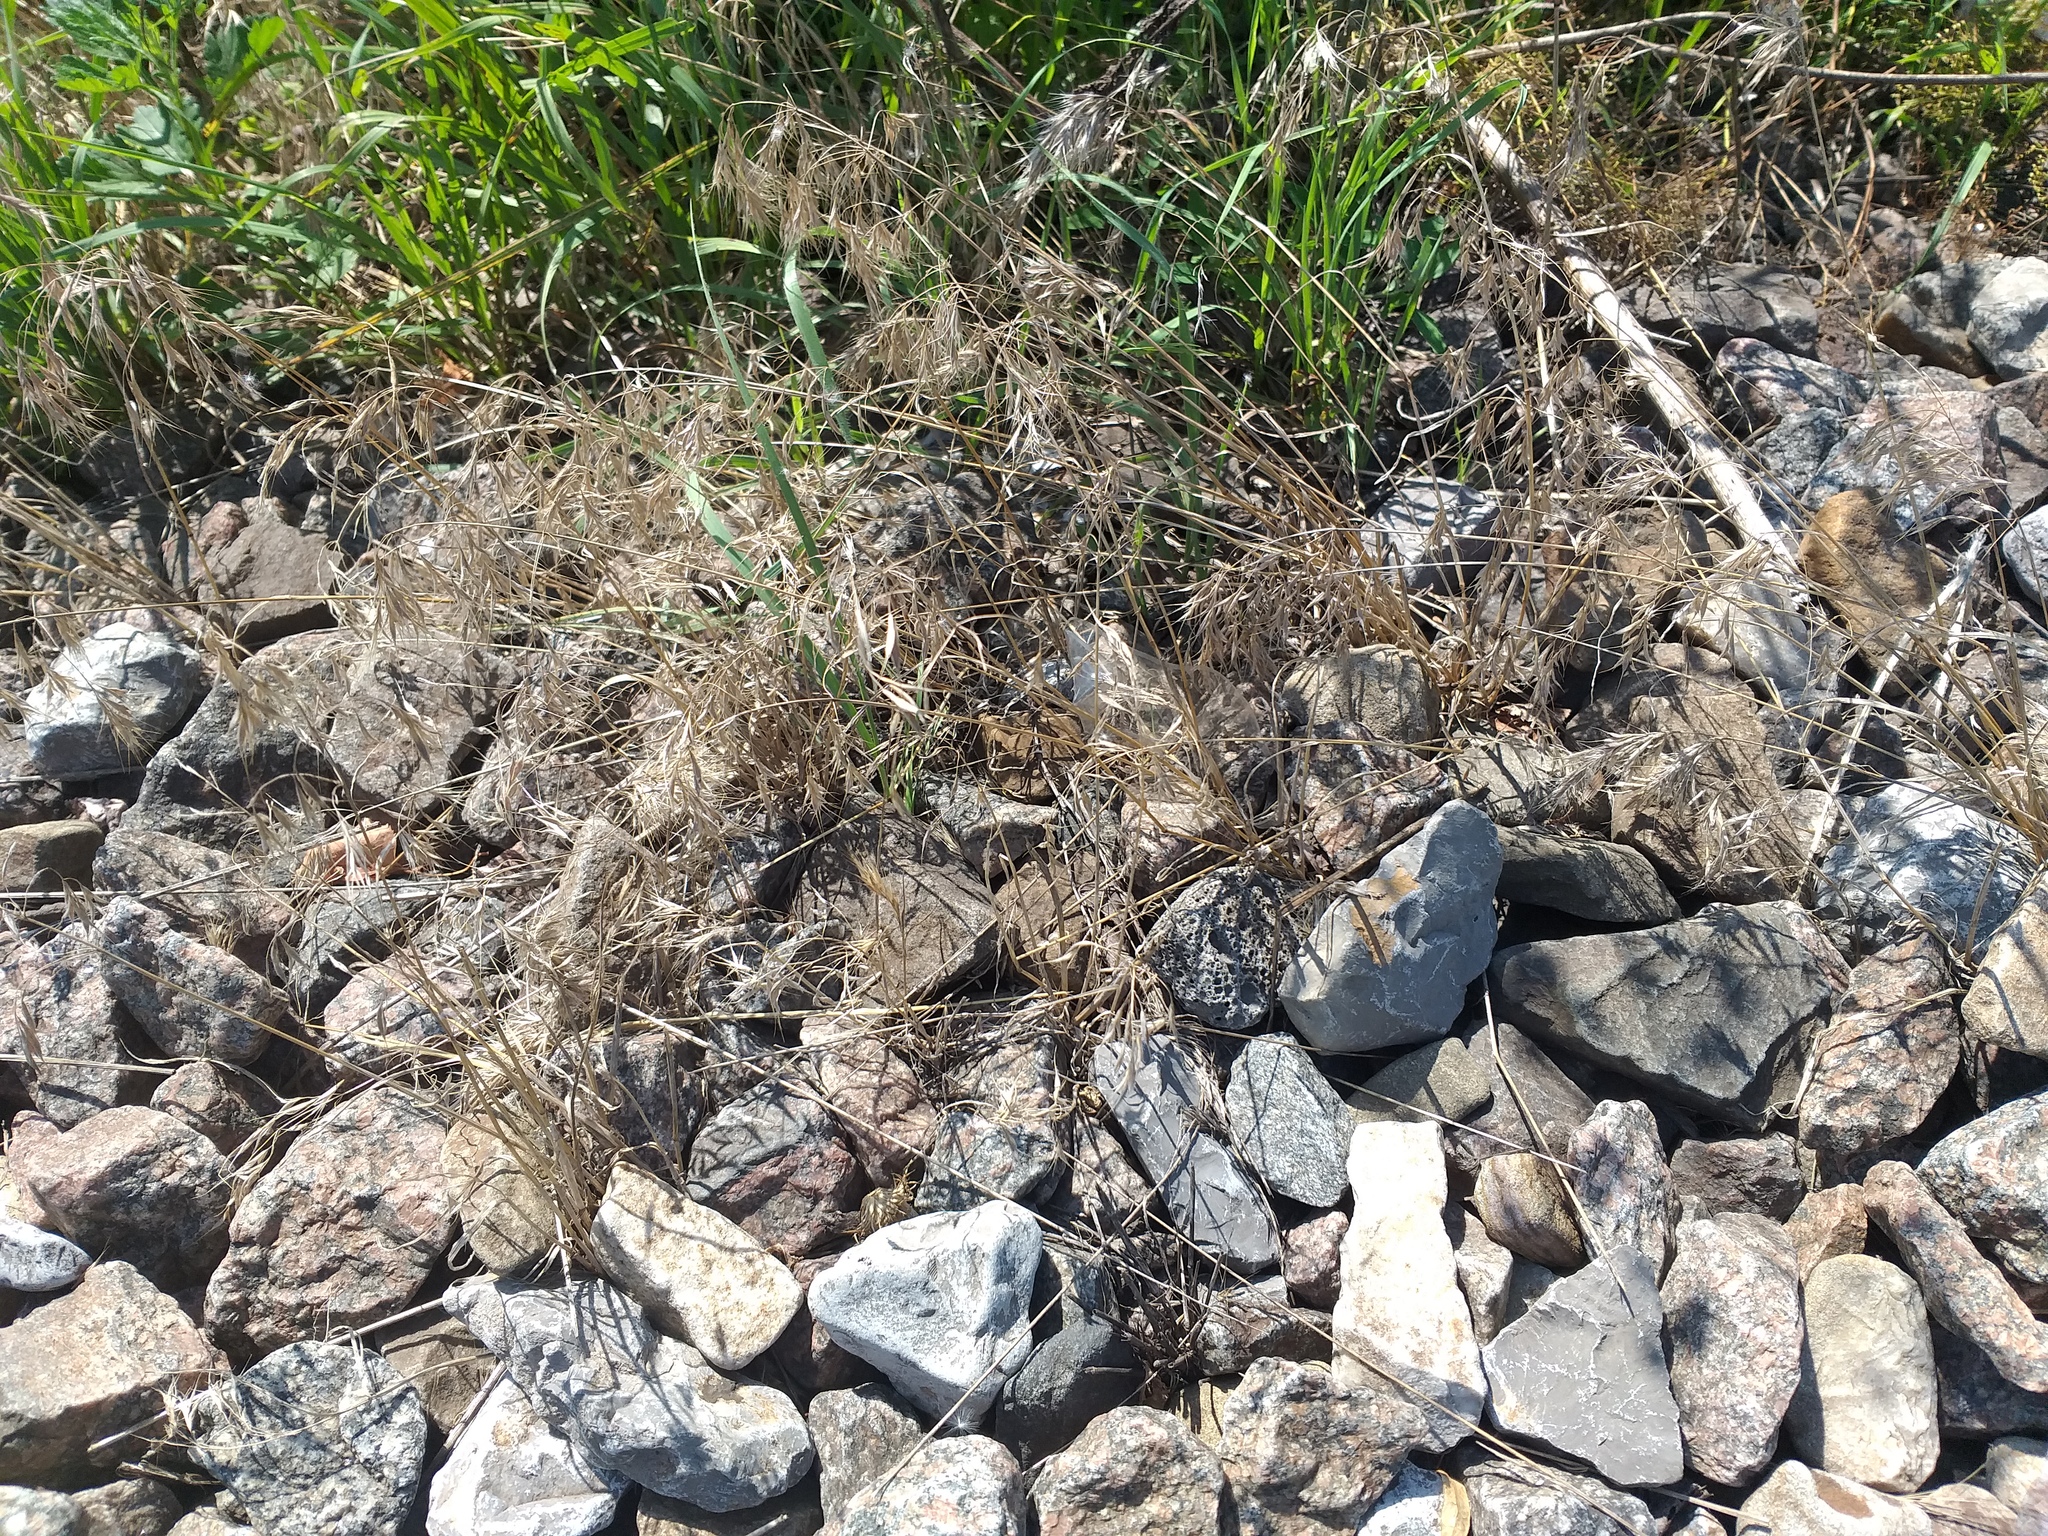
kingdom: Plantae
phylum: Tracheophyta
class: Liliopsida
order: Poales
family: Poaceae
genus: Bromus
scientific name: Bromus tectorum
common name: Cheatgrass
